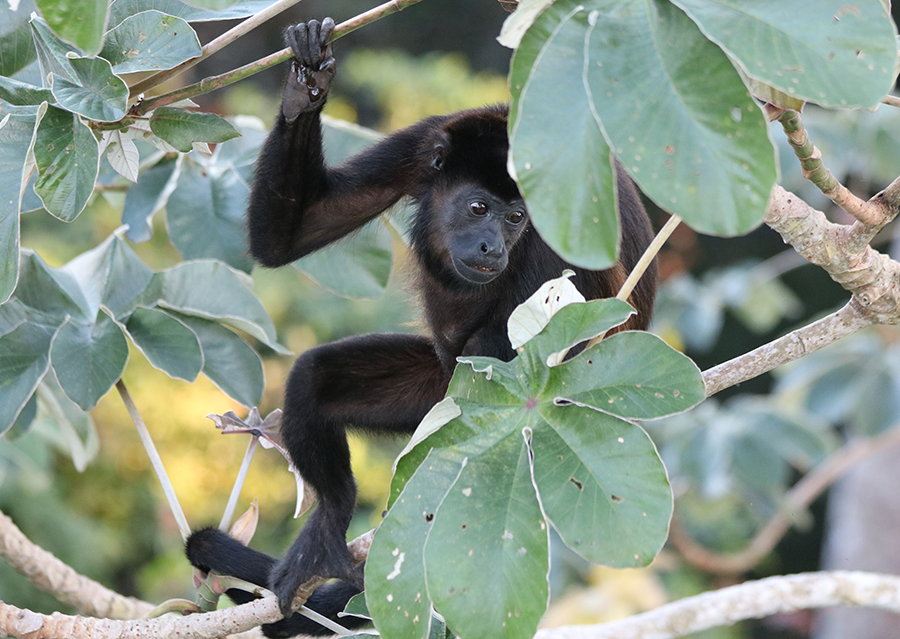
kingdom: Animalia
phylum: Chordata
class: Mammalia
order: Primates
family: Atelidae
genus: Alouatta
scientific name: Alouatta palliata
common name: Mantled howler
